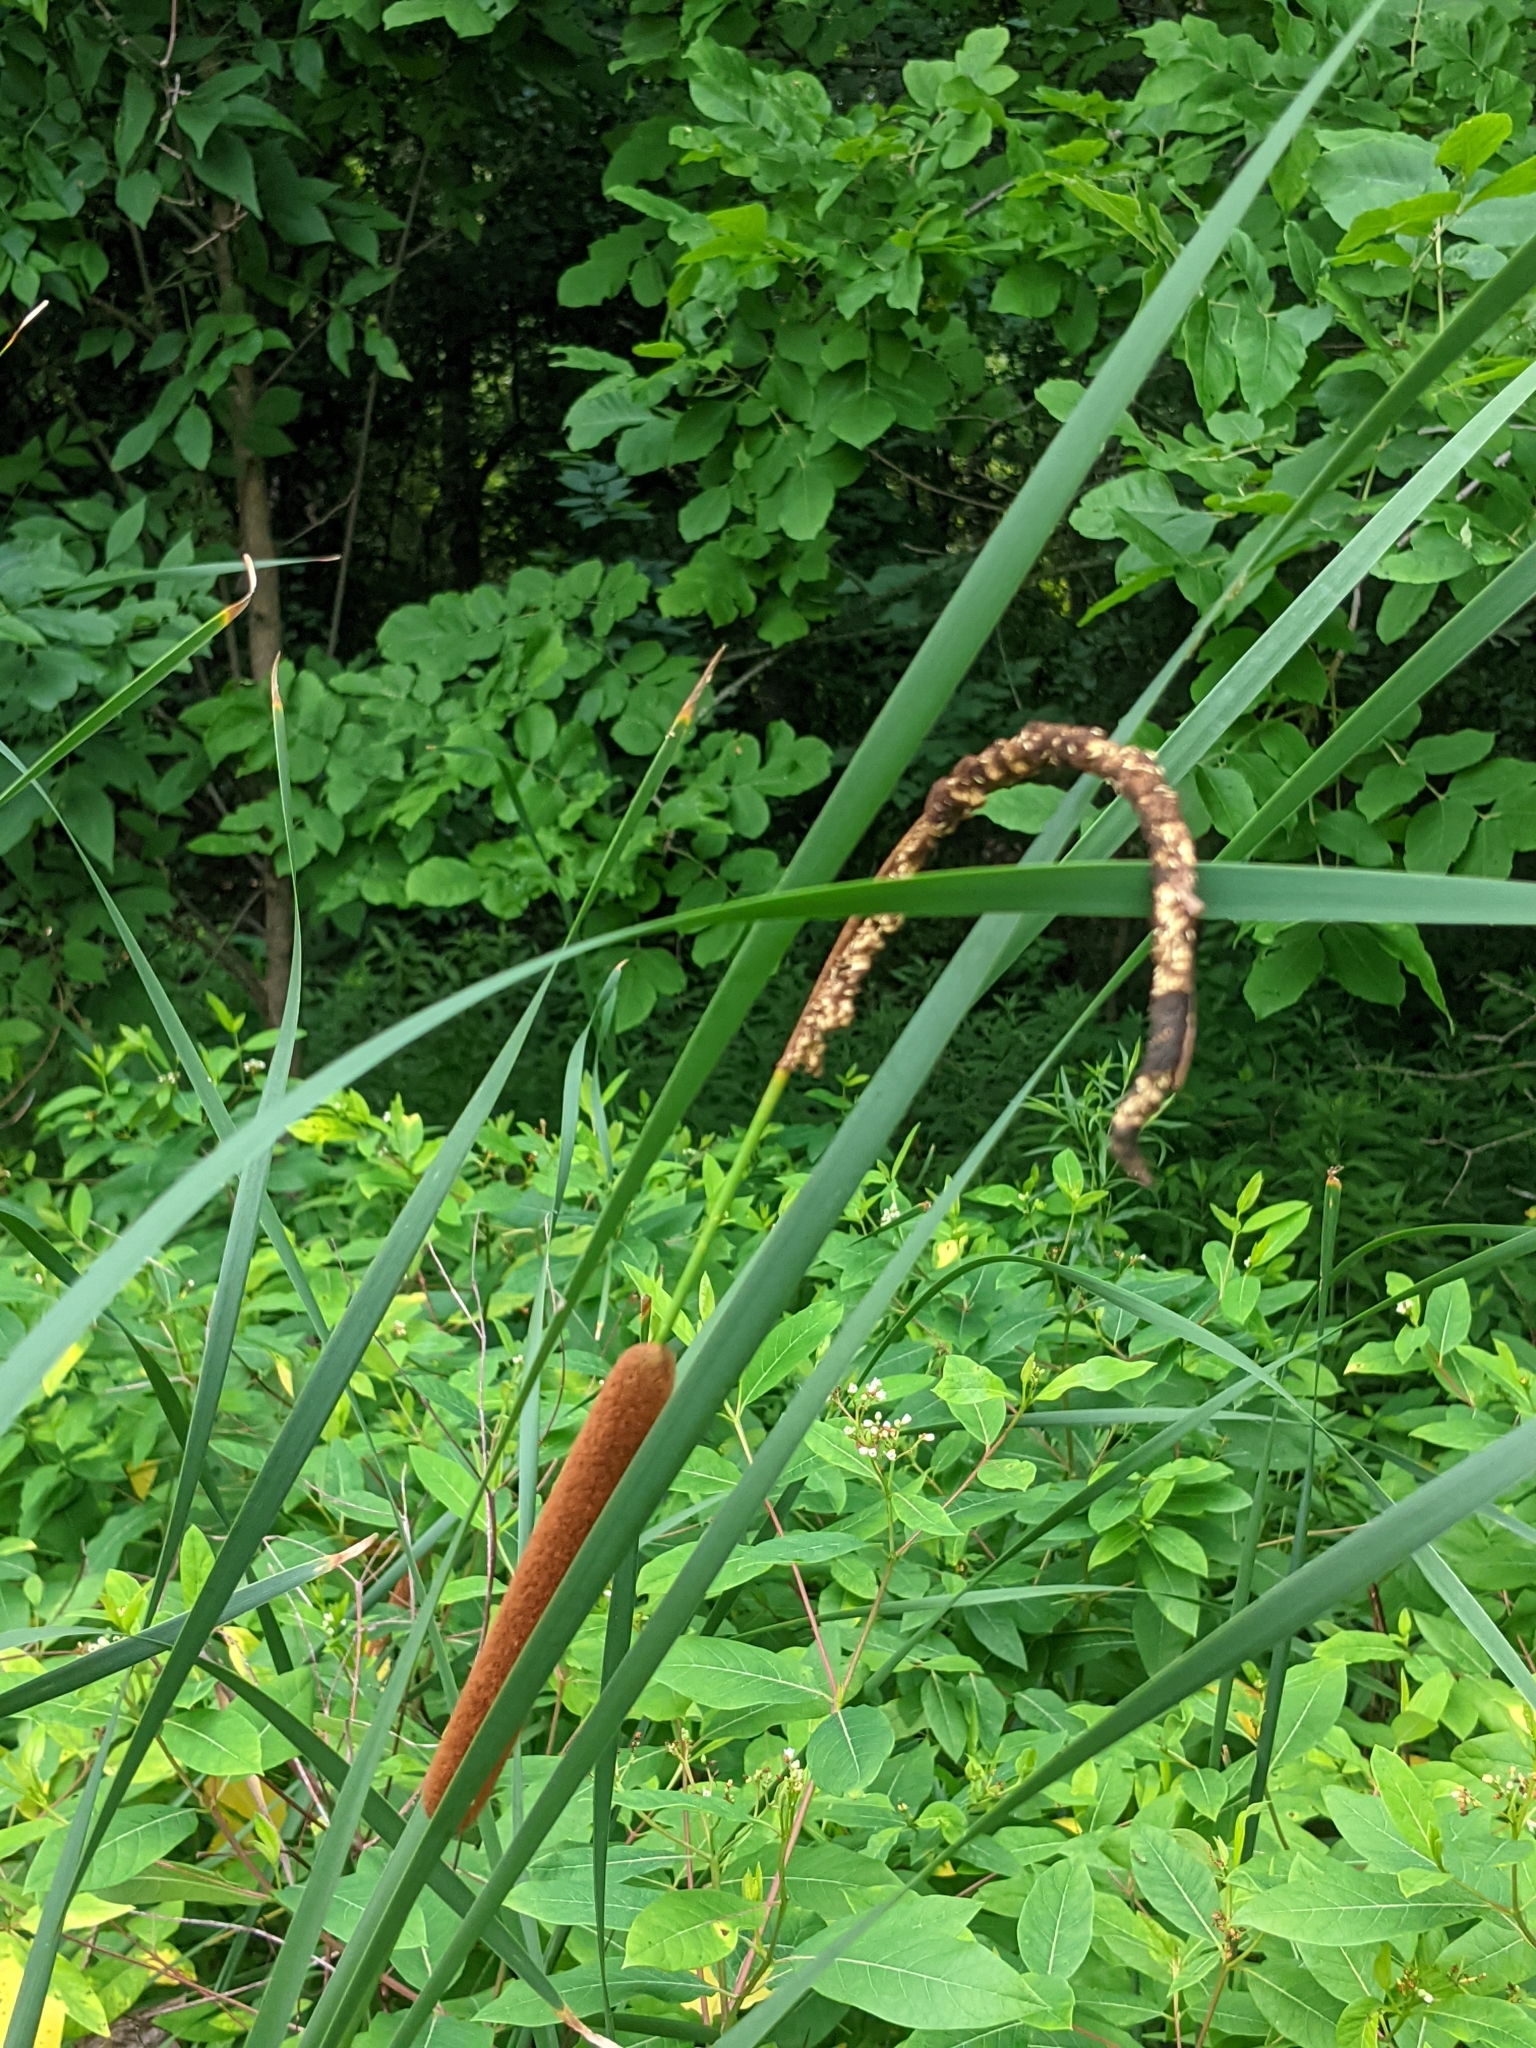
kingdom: Plantae
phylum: Tracheophyta
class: Liliopsida
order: Poales
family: Typhaceae
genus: Typha
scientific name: Typha angustifolia
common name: Lesser bulrush
